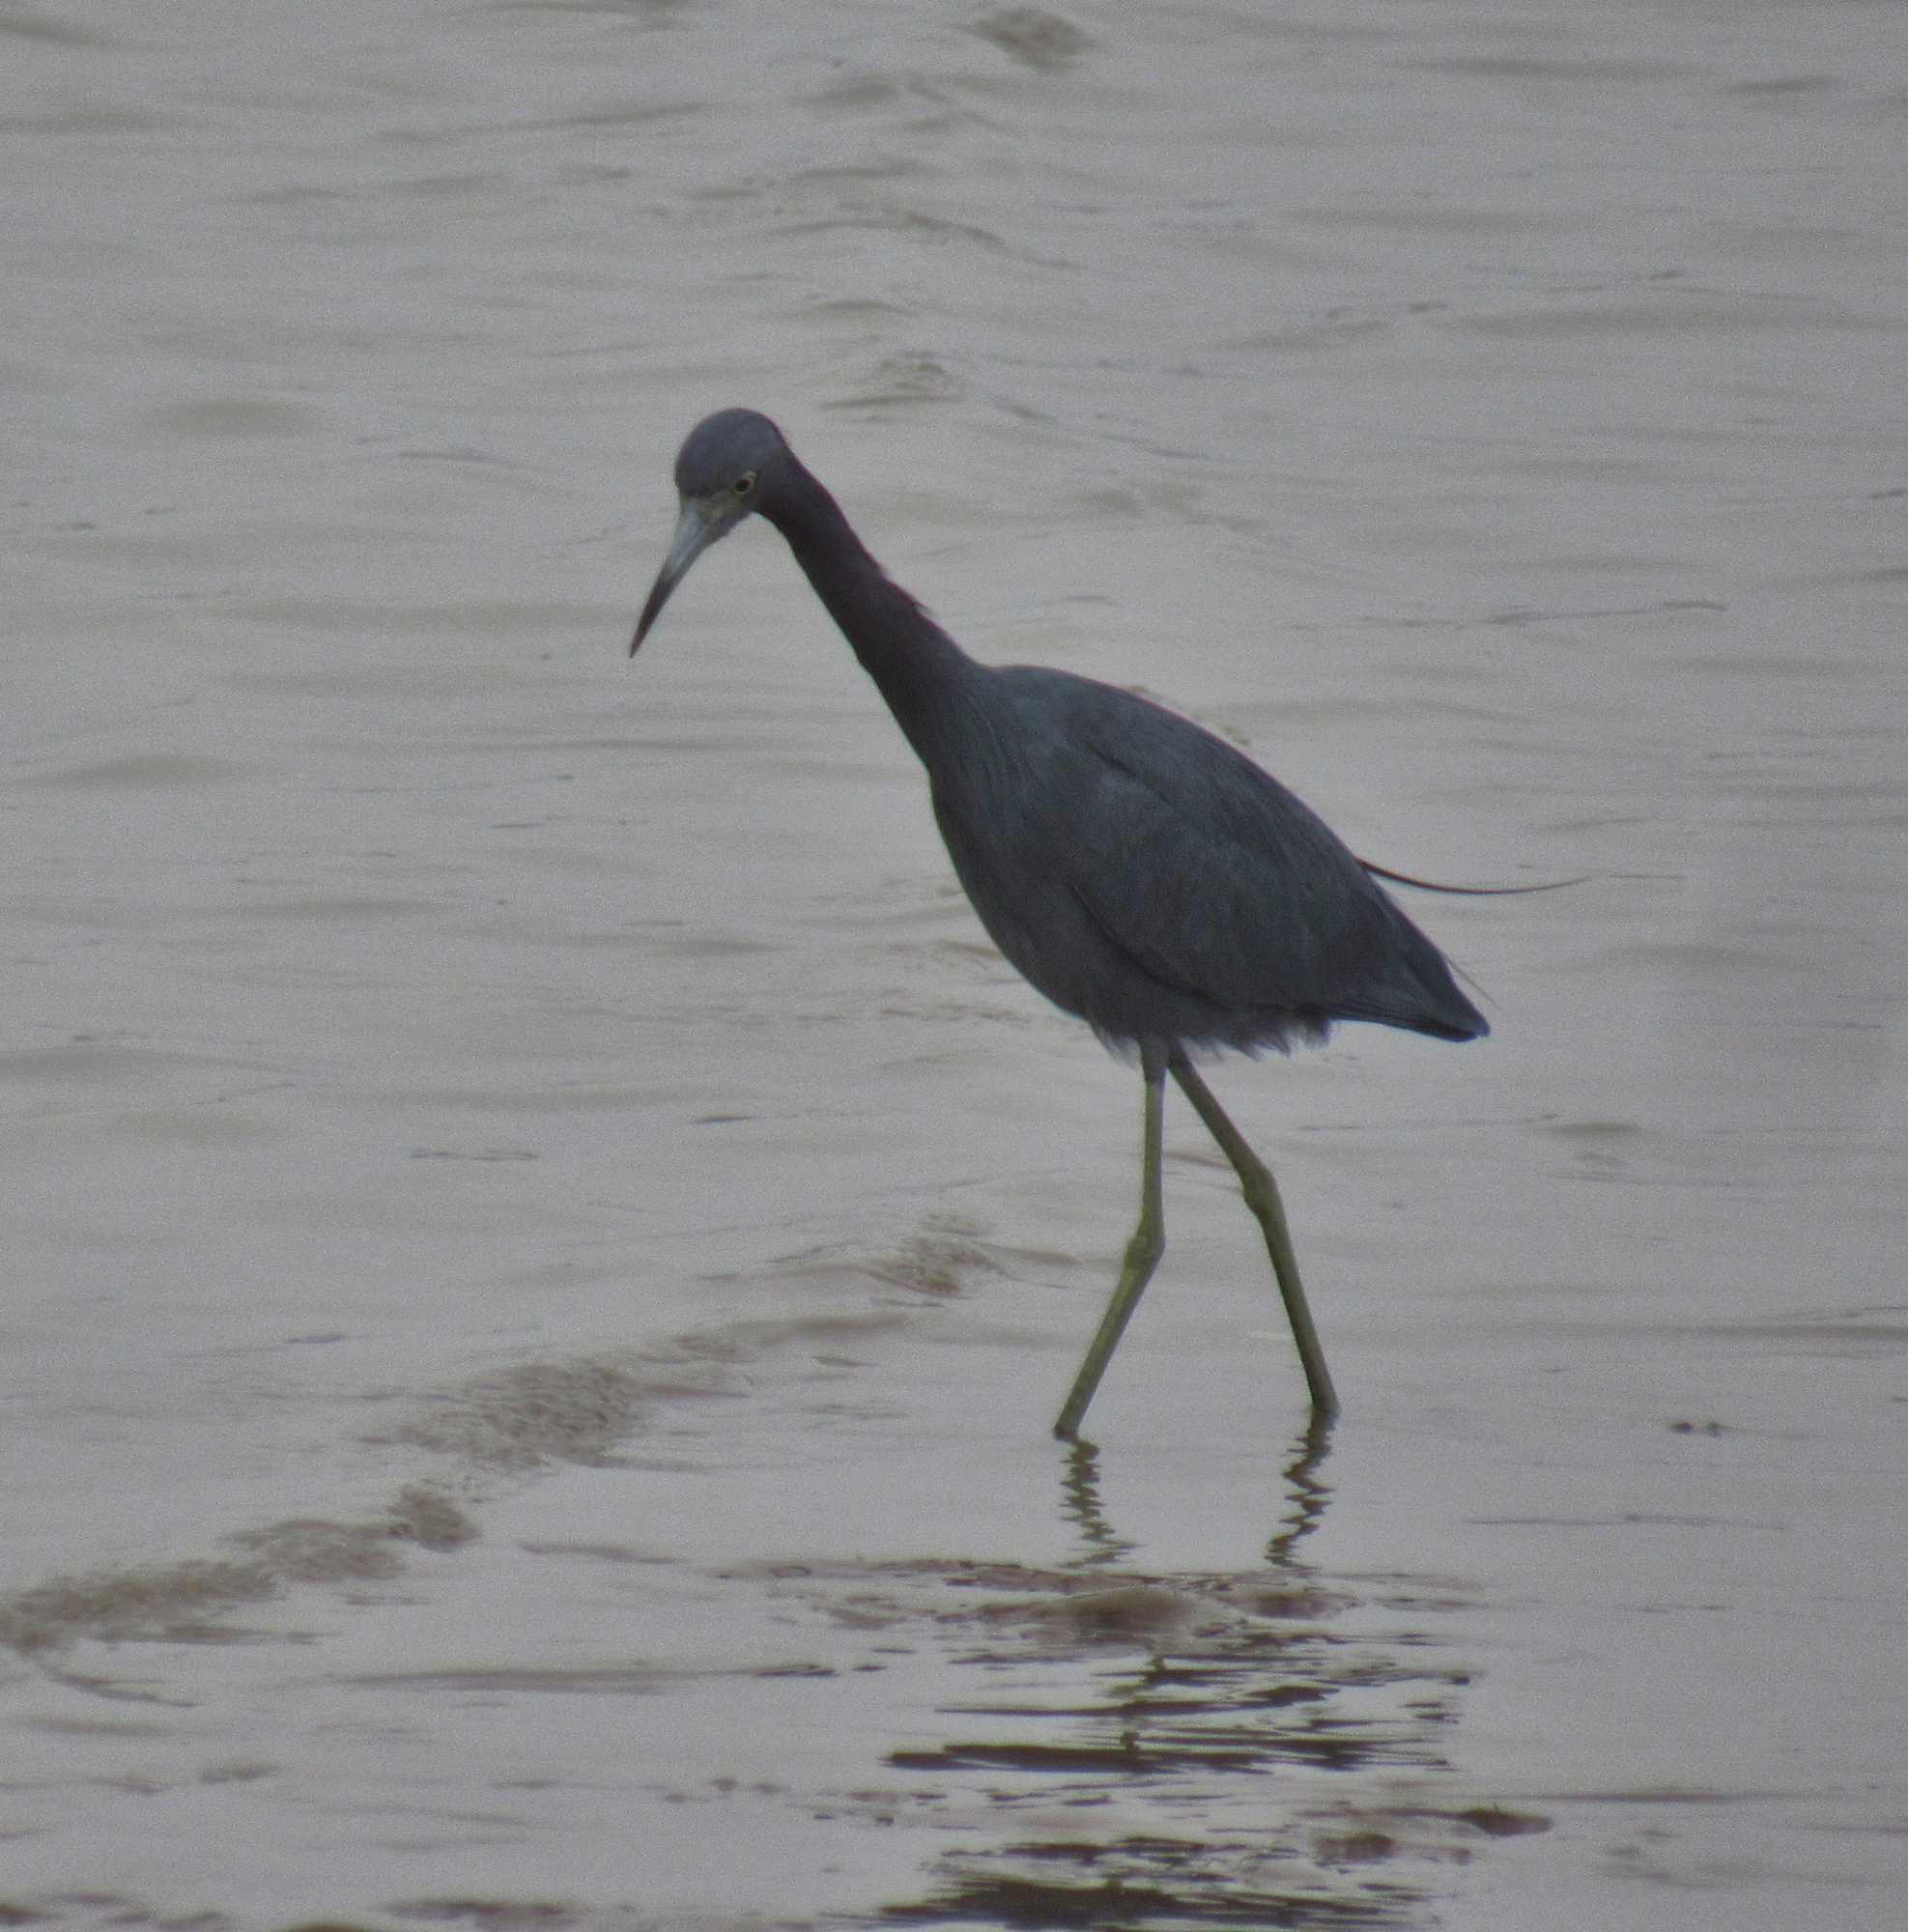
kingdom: Animalia
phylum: Chordata
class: Aves
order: Pelecaniformes
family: Ardeidae
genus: Egretta
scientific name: Egretta caerulea
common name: Little blue heron
